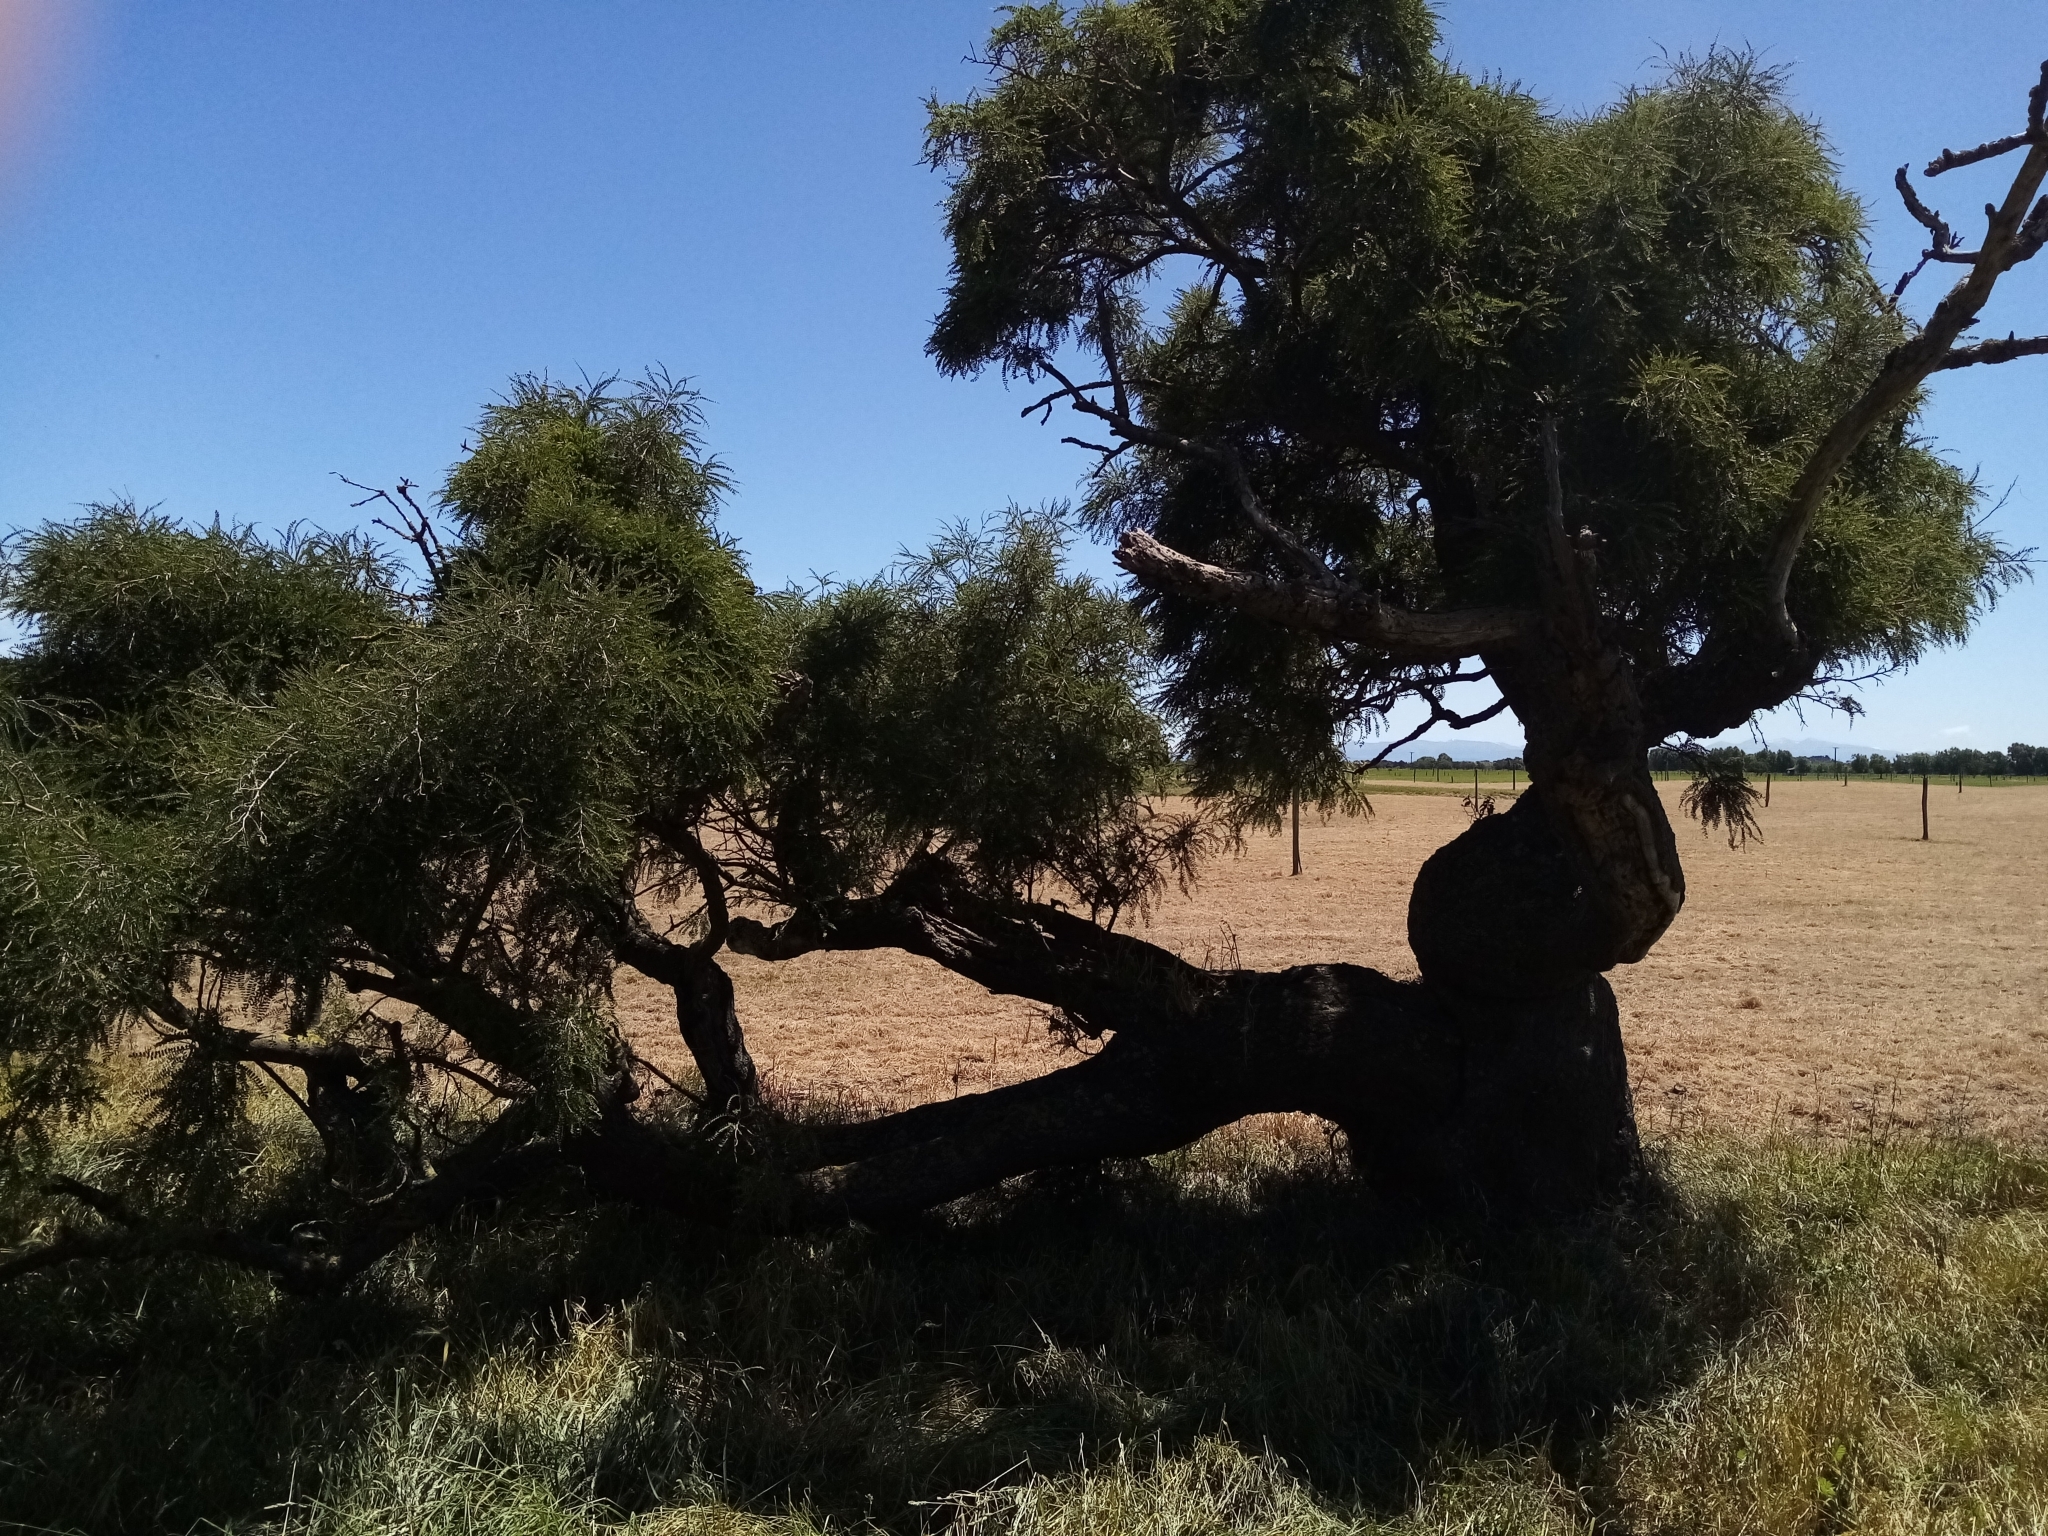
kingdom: Plantae
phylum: Tracheophyta
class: Magnoliopsida
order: Fabales
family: Fabaceae
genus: Sophora
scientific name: Sophora microphylla
